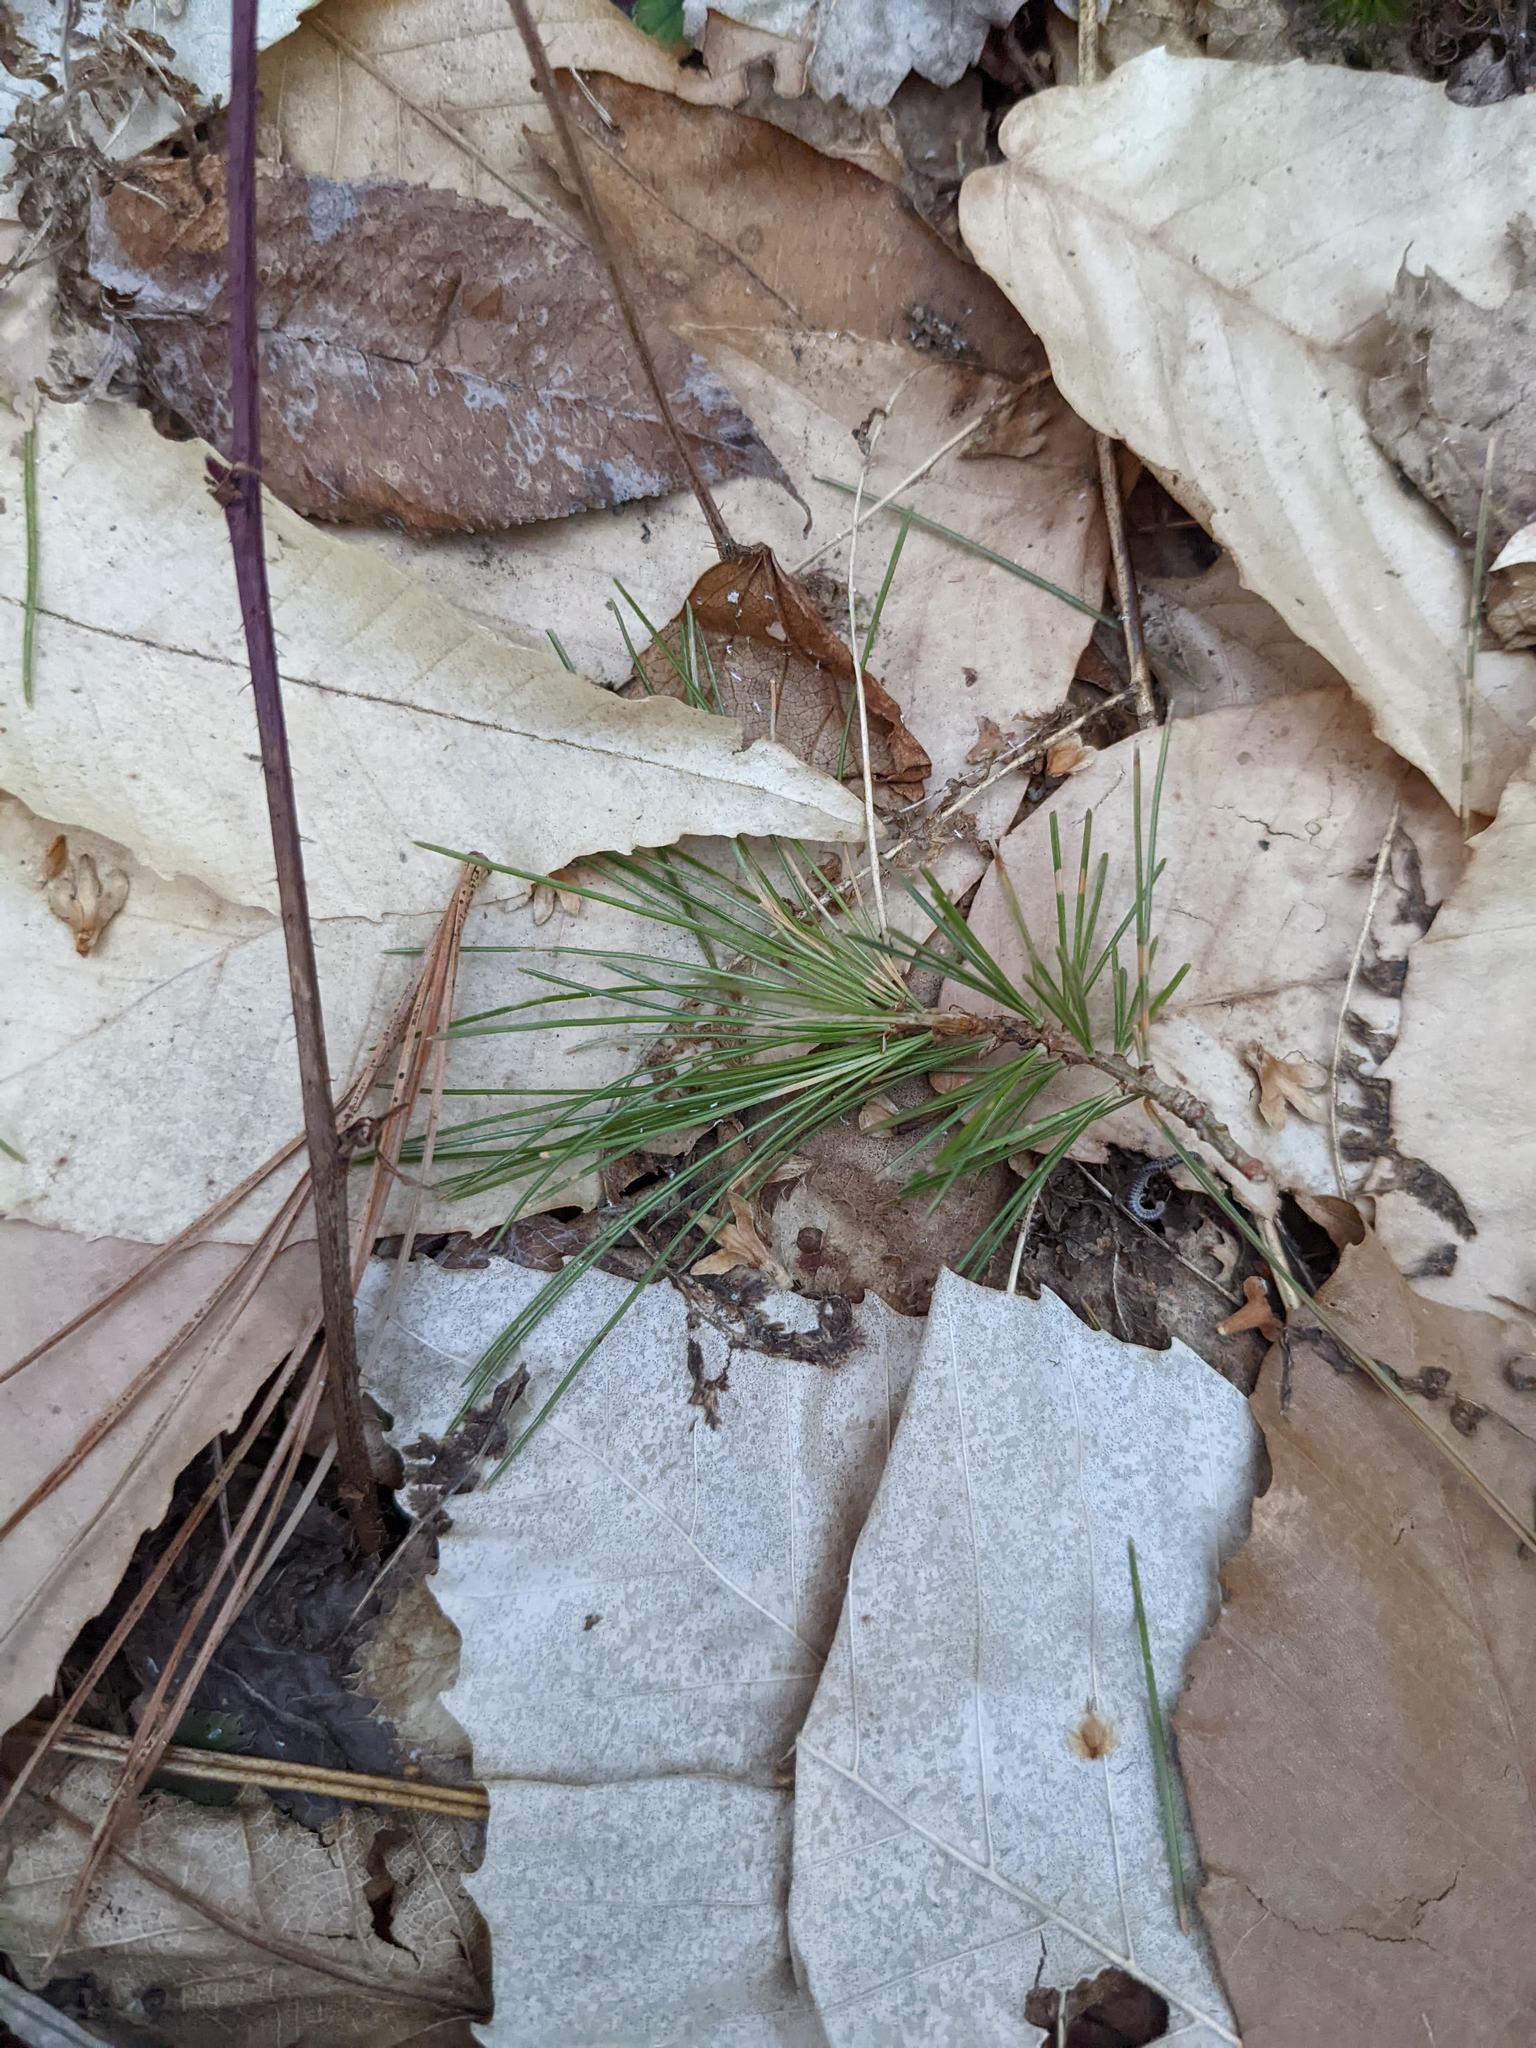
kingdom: Plantae
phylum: Tracheophyta
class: Pinopsida
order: Pinales
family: Pinaceae
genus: Pinus
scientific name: Pinus strobus
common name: Weymouth pine
